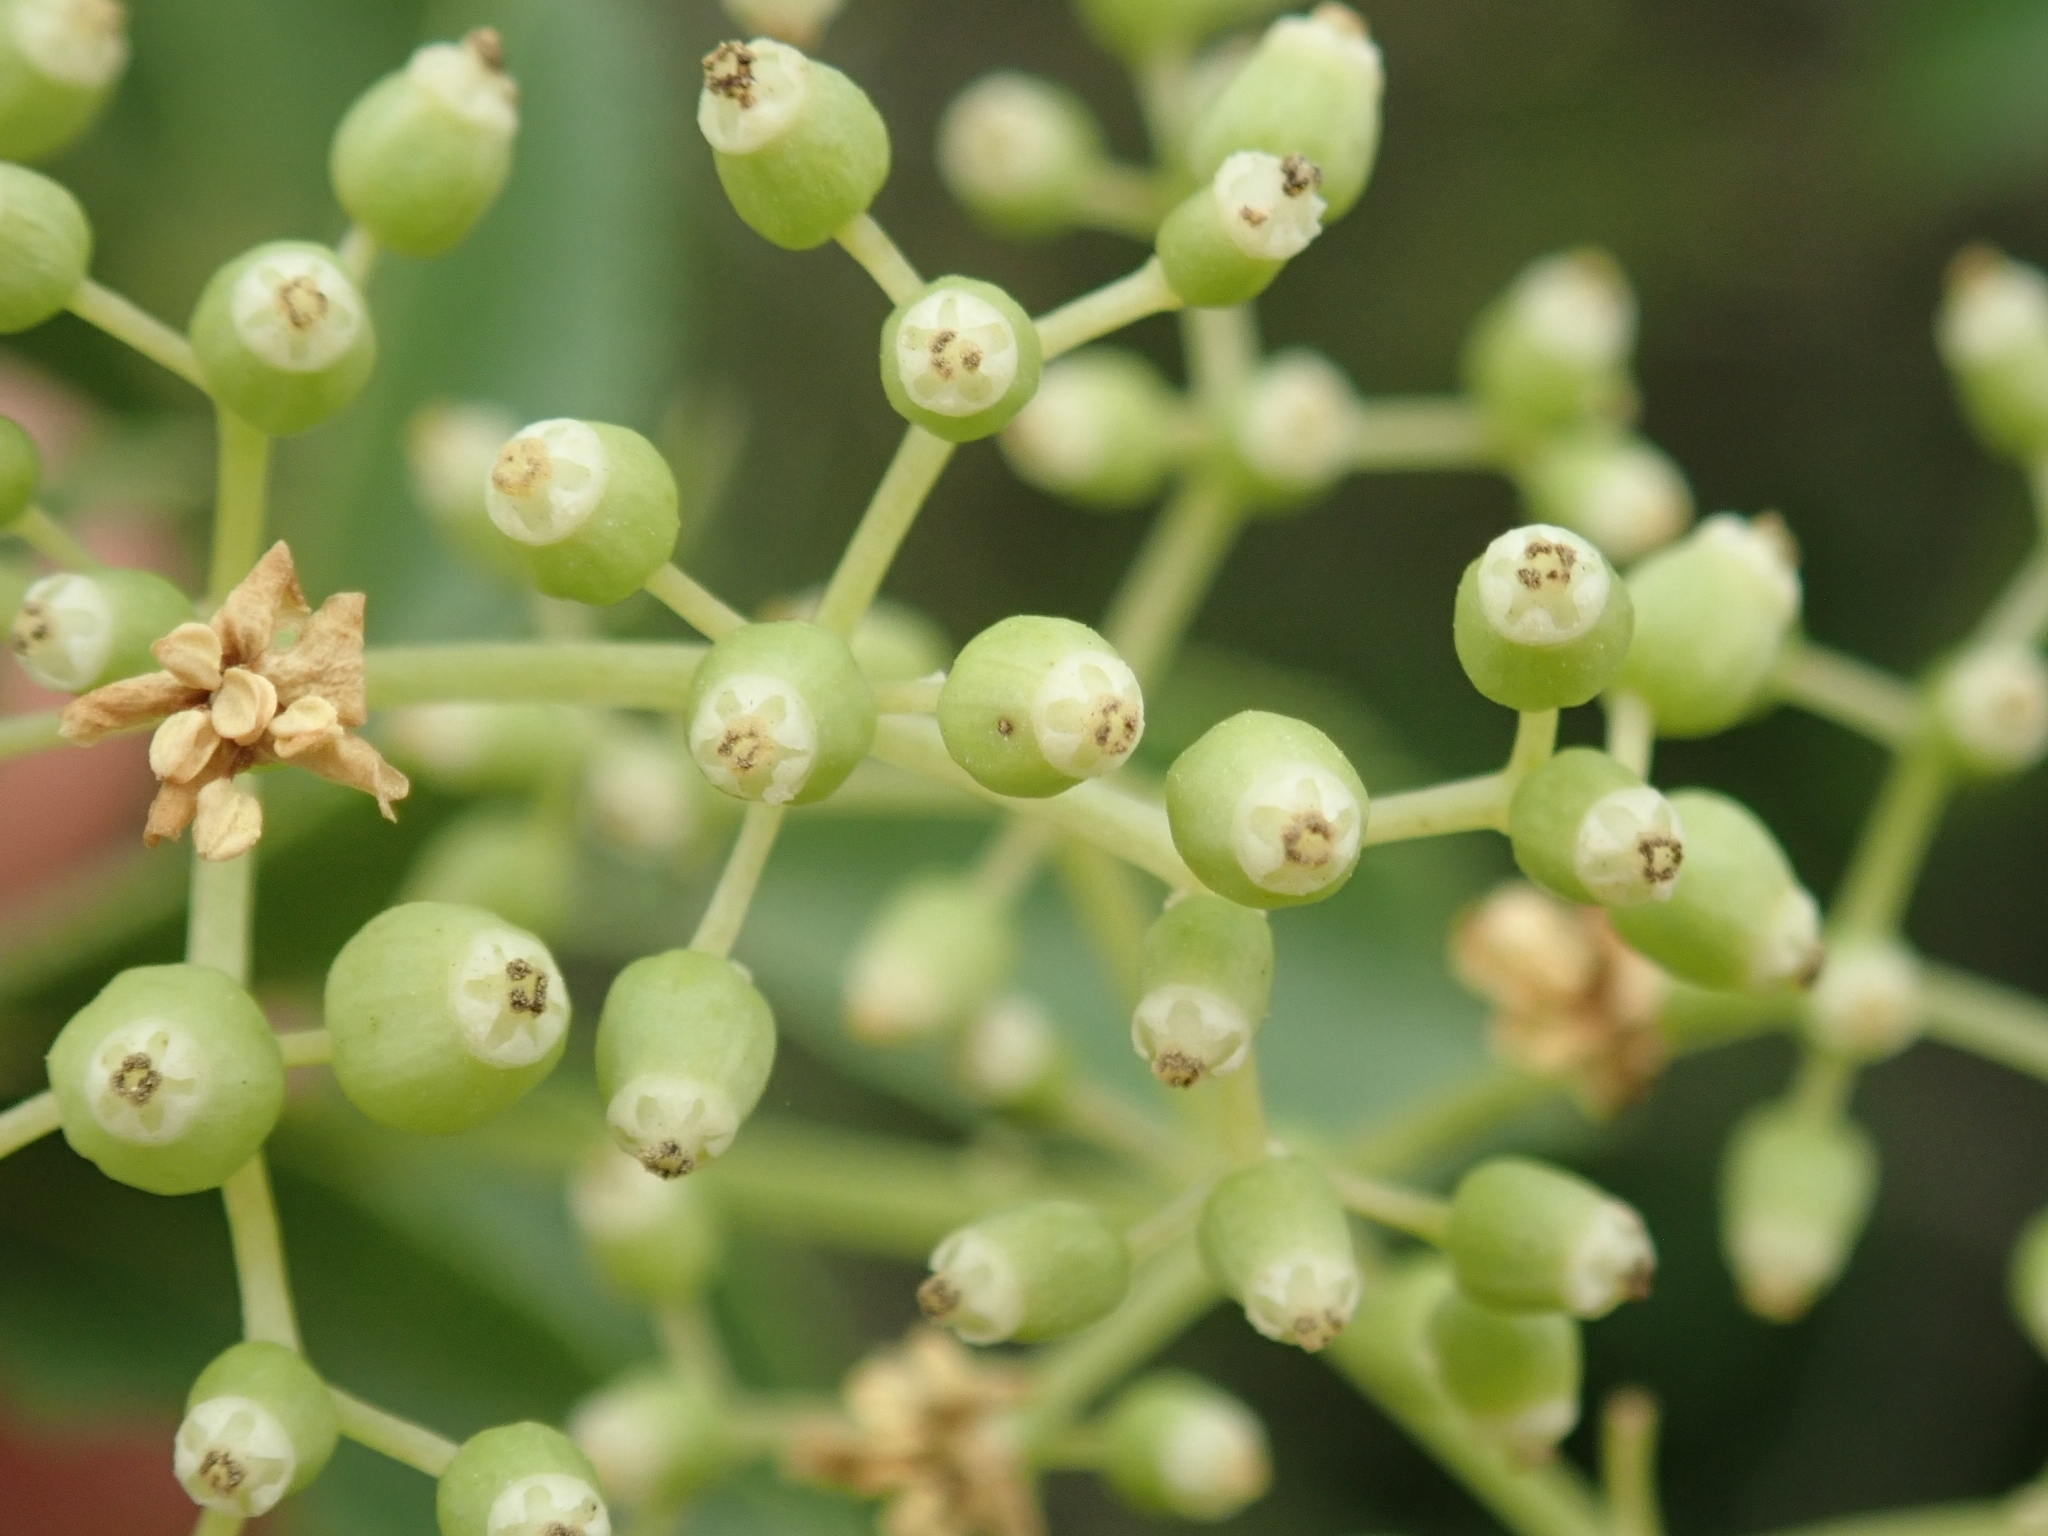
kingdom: Plantae
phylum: Tracheophyta
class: Magnoliopsida
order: Dipsacales
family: Viburnaceae
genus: Sambucus
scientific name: Sambucus cerulea
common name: Blue elder
